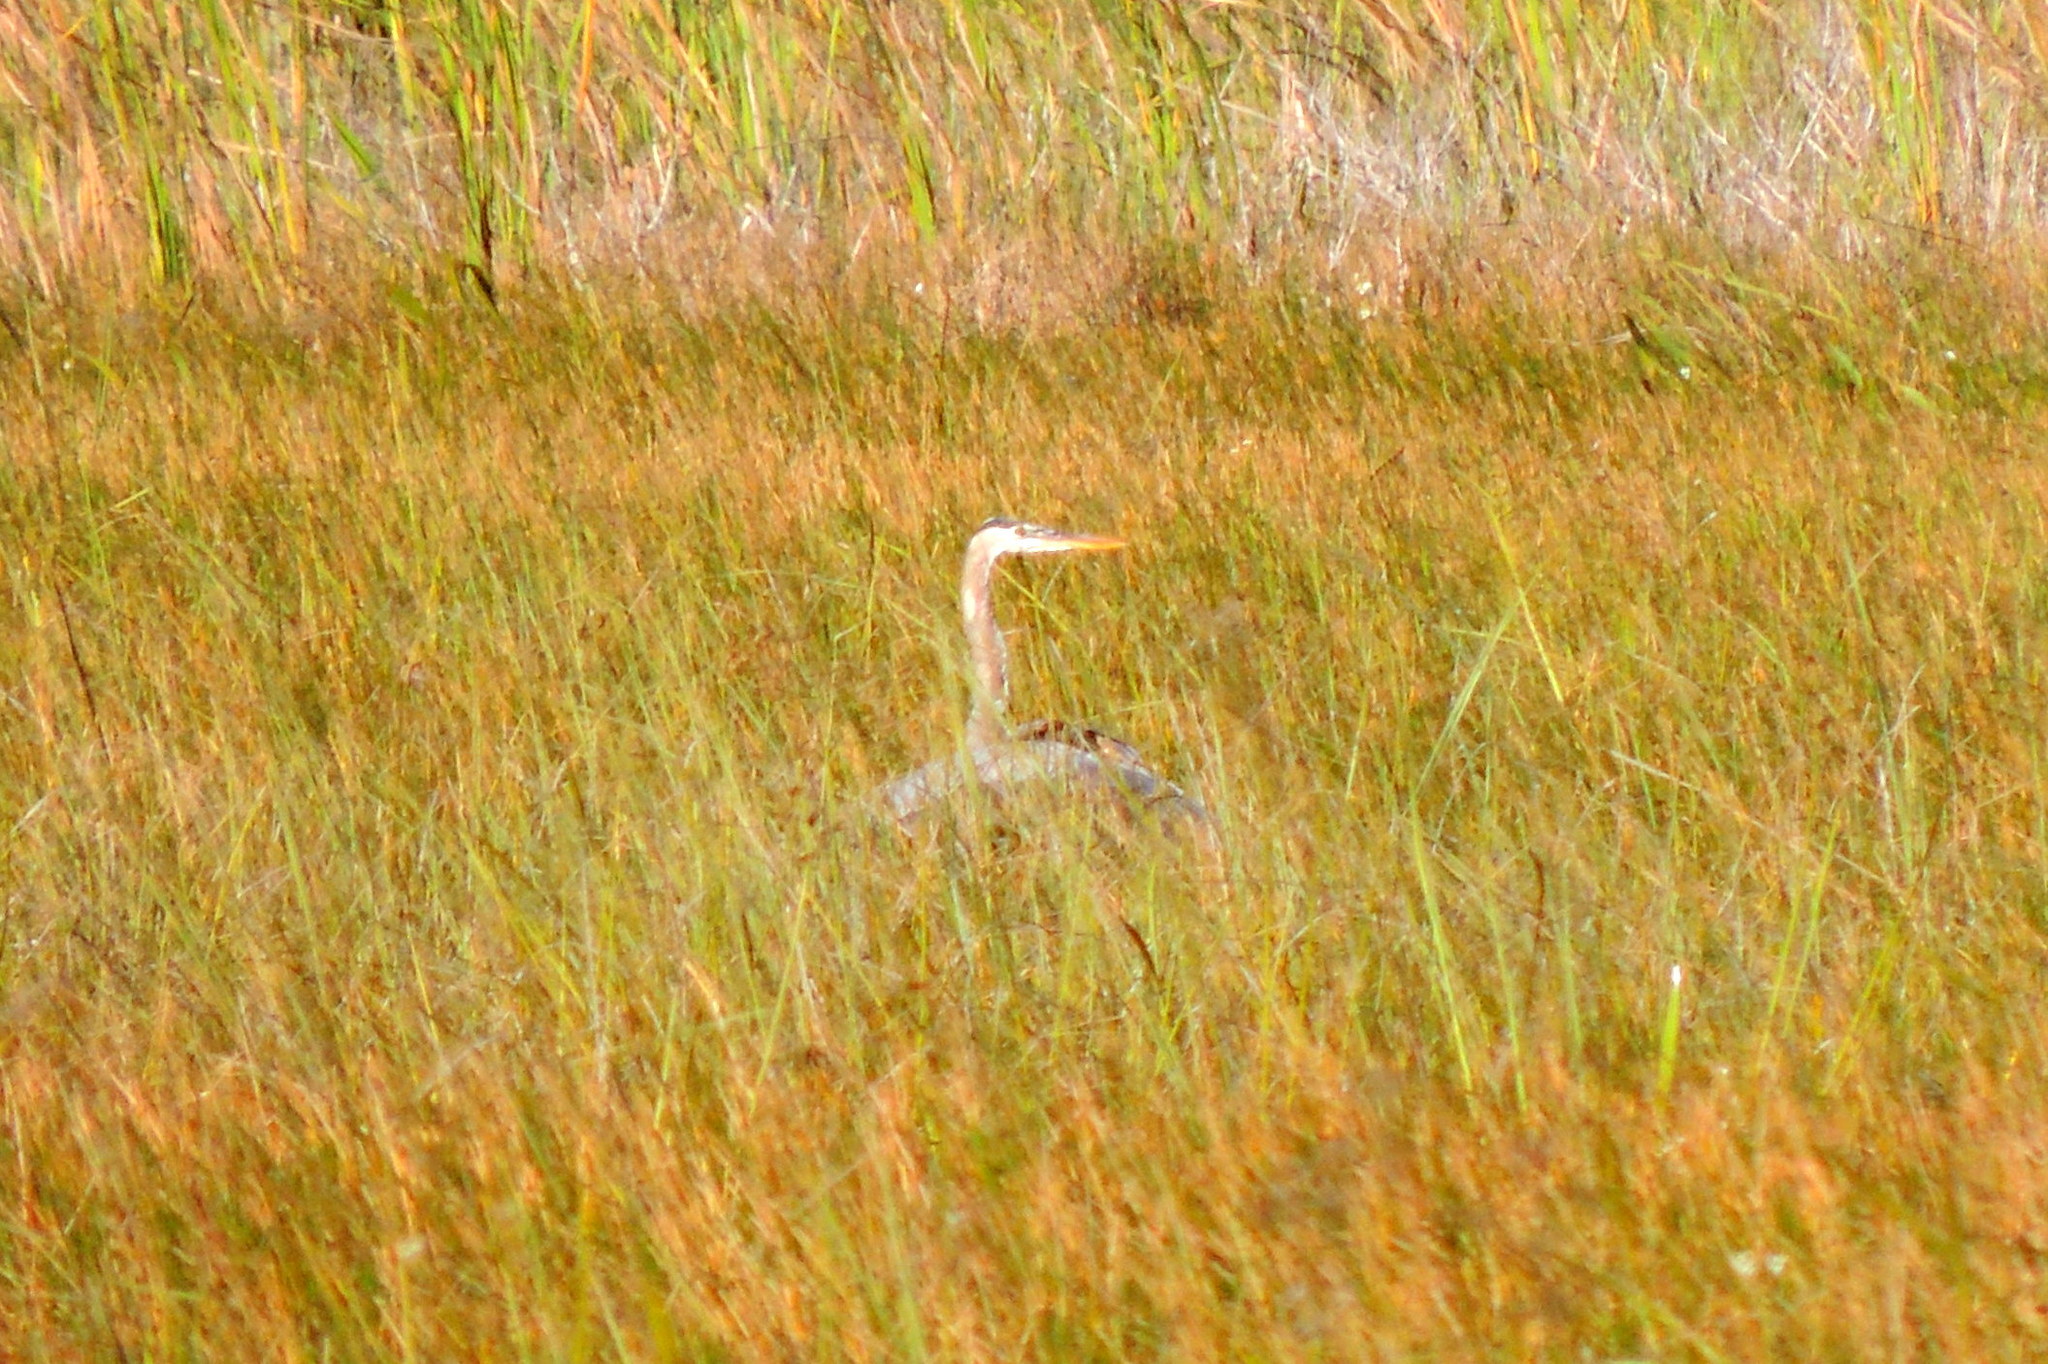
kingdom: Animalia
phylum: Chordata
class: Aves
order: Pelecaniformes
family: Ardeidae
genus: Ardea
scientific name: Ardea herodias
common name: Great blue heron
